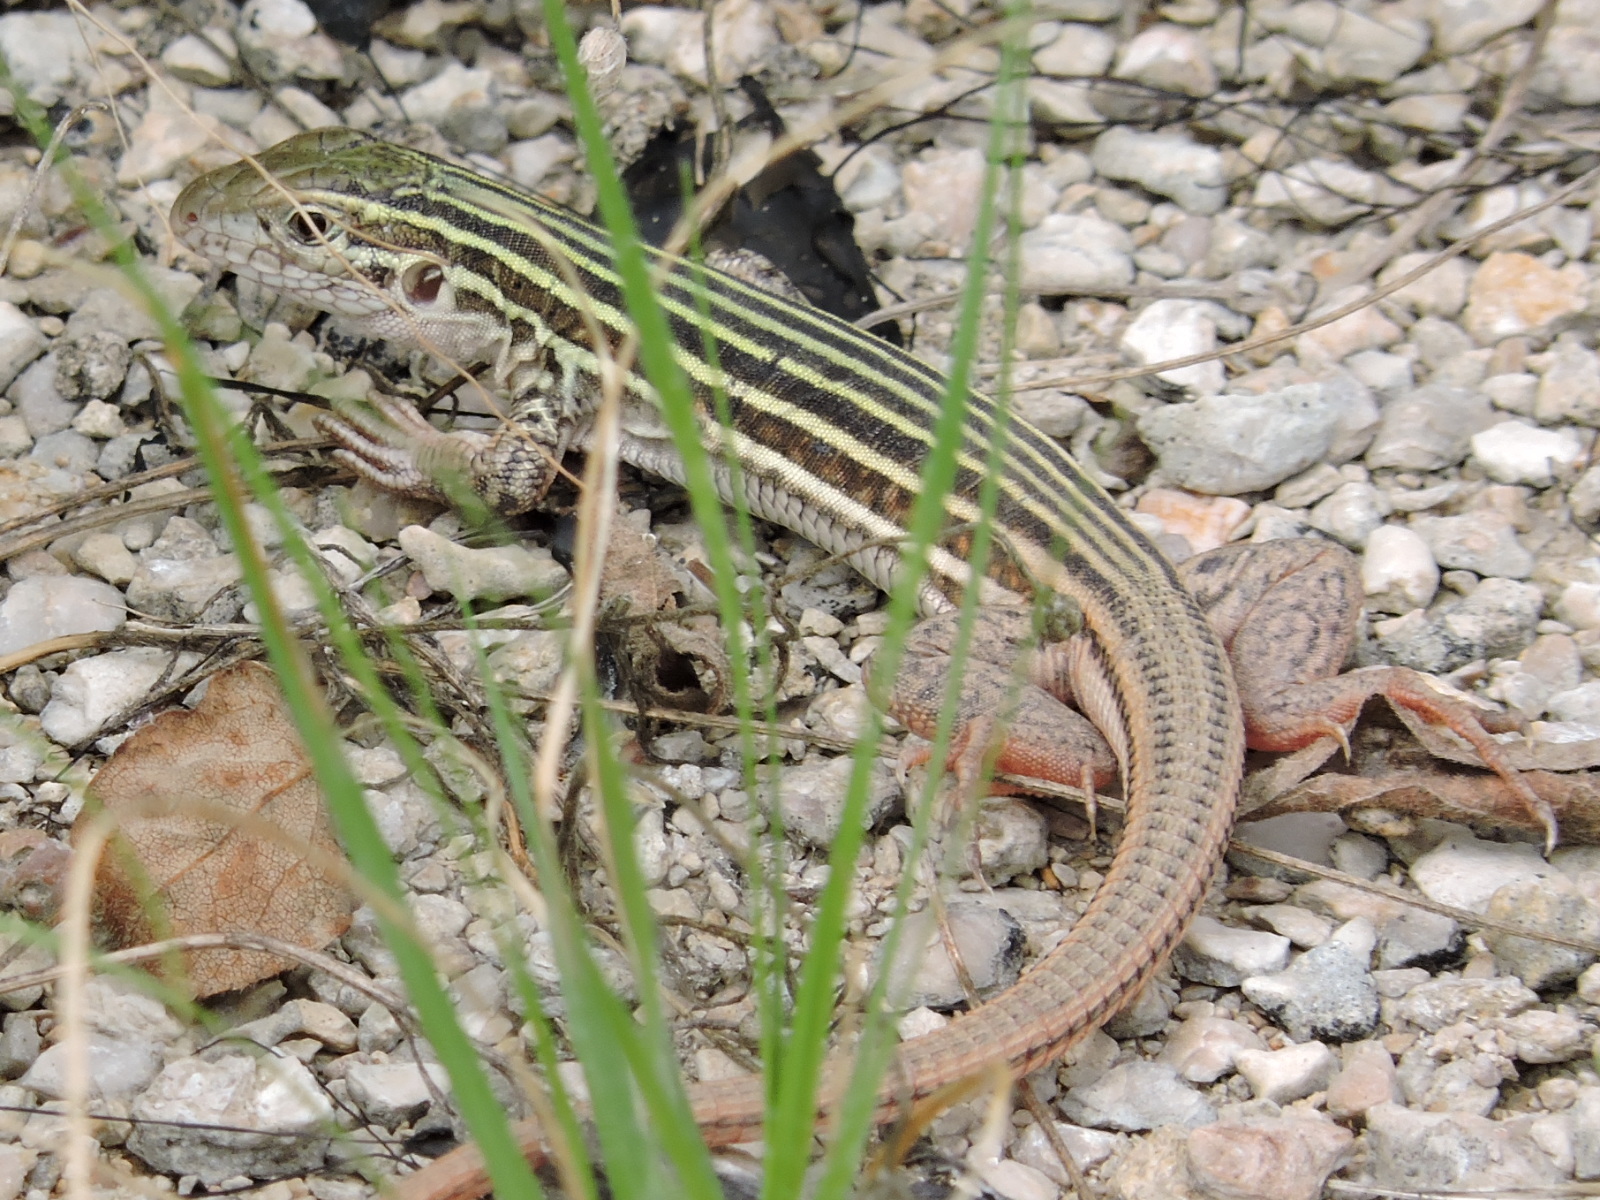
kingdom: Animalia
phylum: Chordata
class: Squamata
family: Teiidae
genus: Aspidoscelis
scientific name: Aspidoscelis gularis
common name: Eastern spotted whiptail
